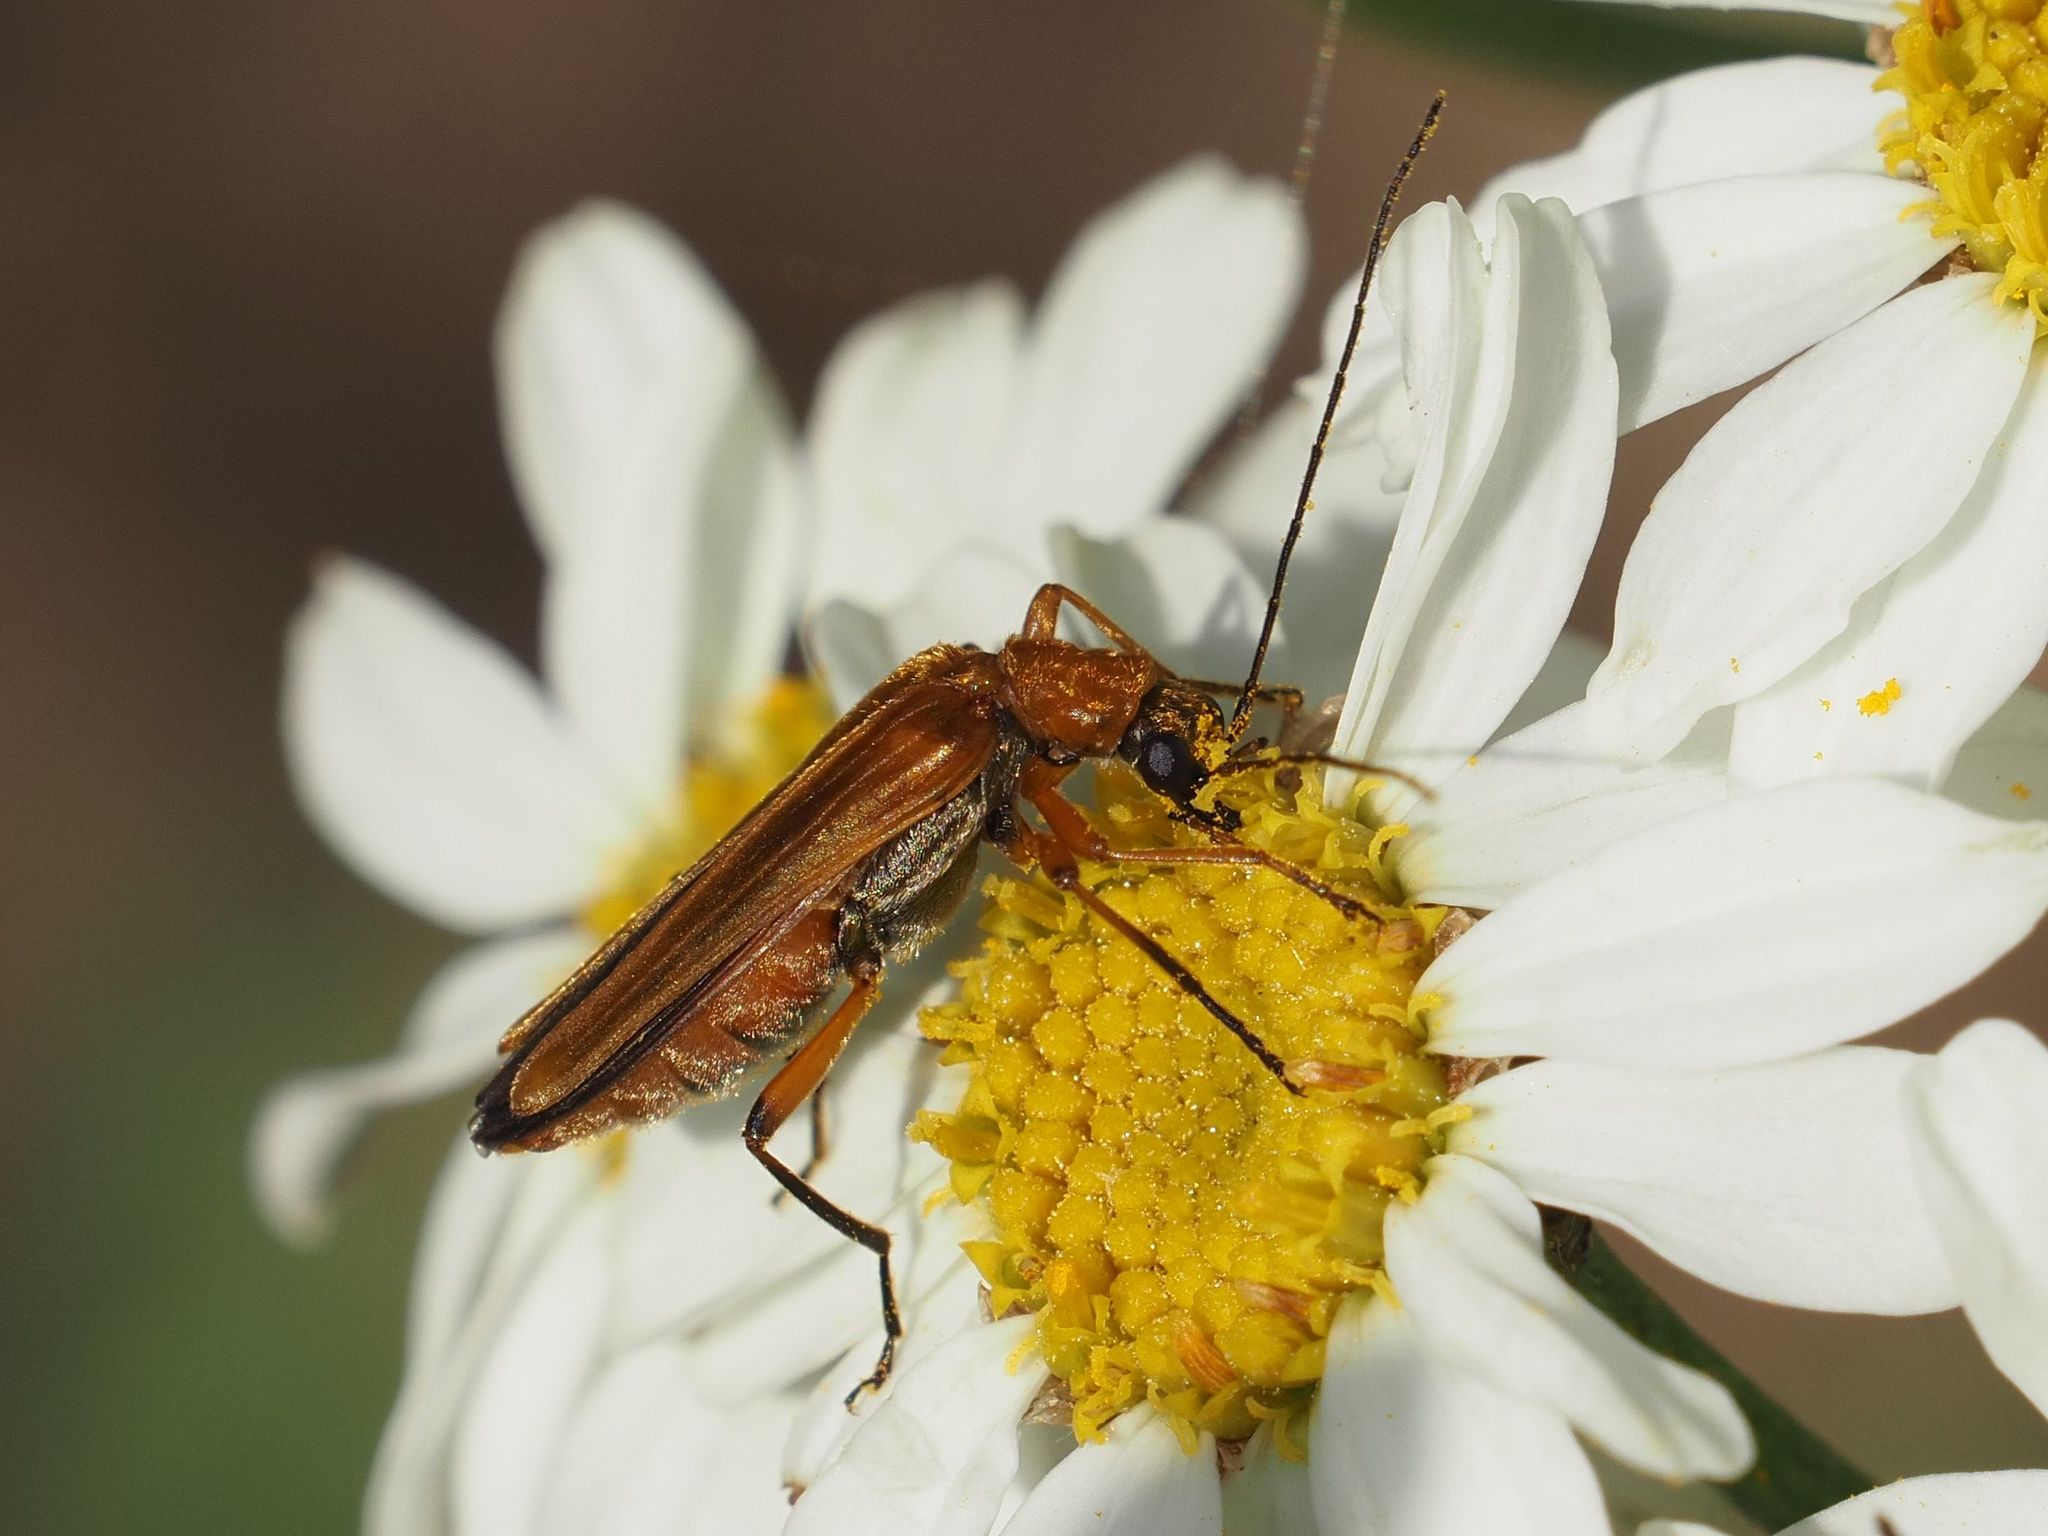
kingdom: Animalia
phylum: Arthropoda
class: Insecta
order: Coleoptera
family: Oedemeridae
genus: Oedemera
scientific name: Oedemera podagrariae
